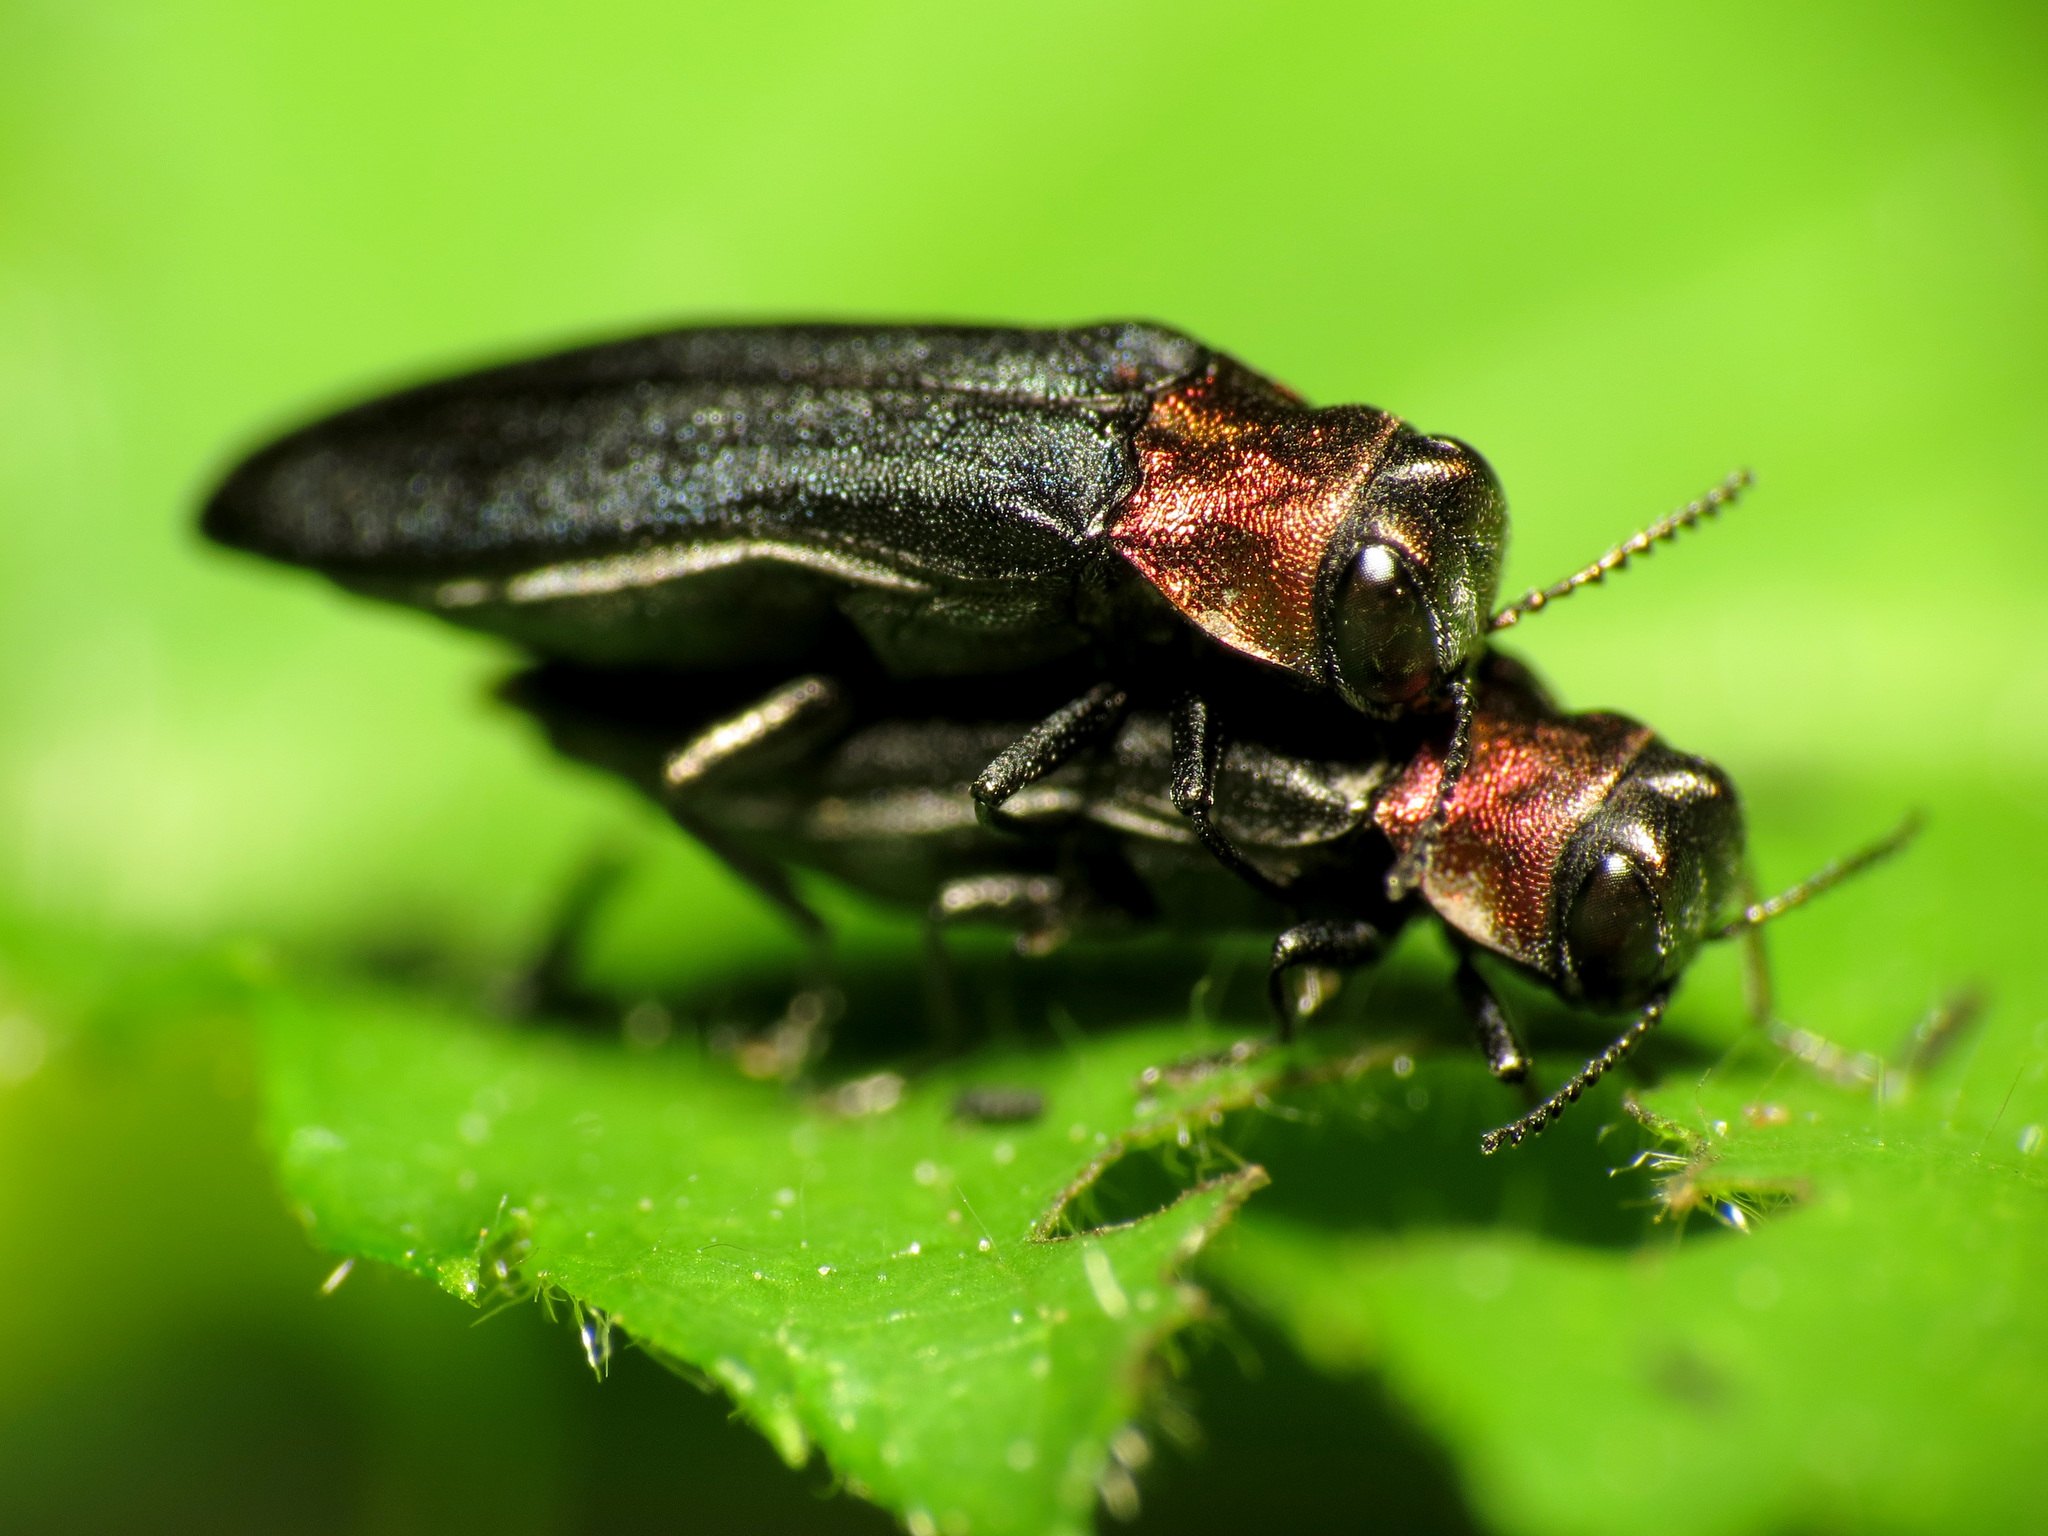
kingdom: Animalia
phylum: Arthropoda
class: Insecta
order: Coleoptera
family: Buprestidae
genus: Agrilus
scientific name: Agrilus ruficollis
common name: Red-necked cane borer beetle
